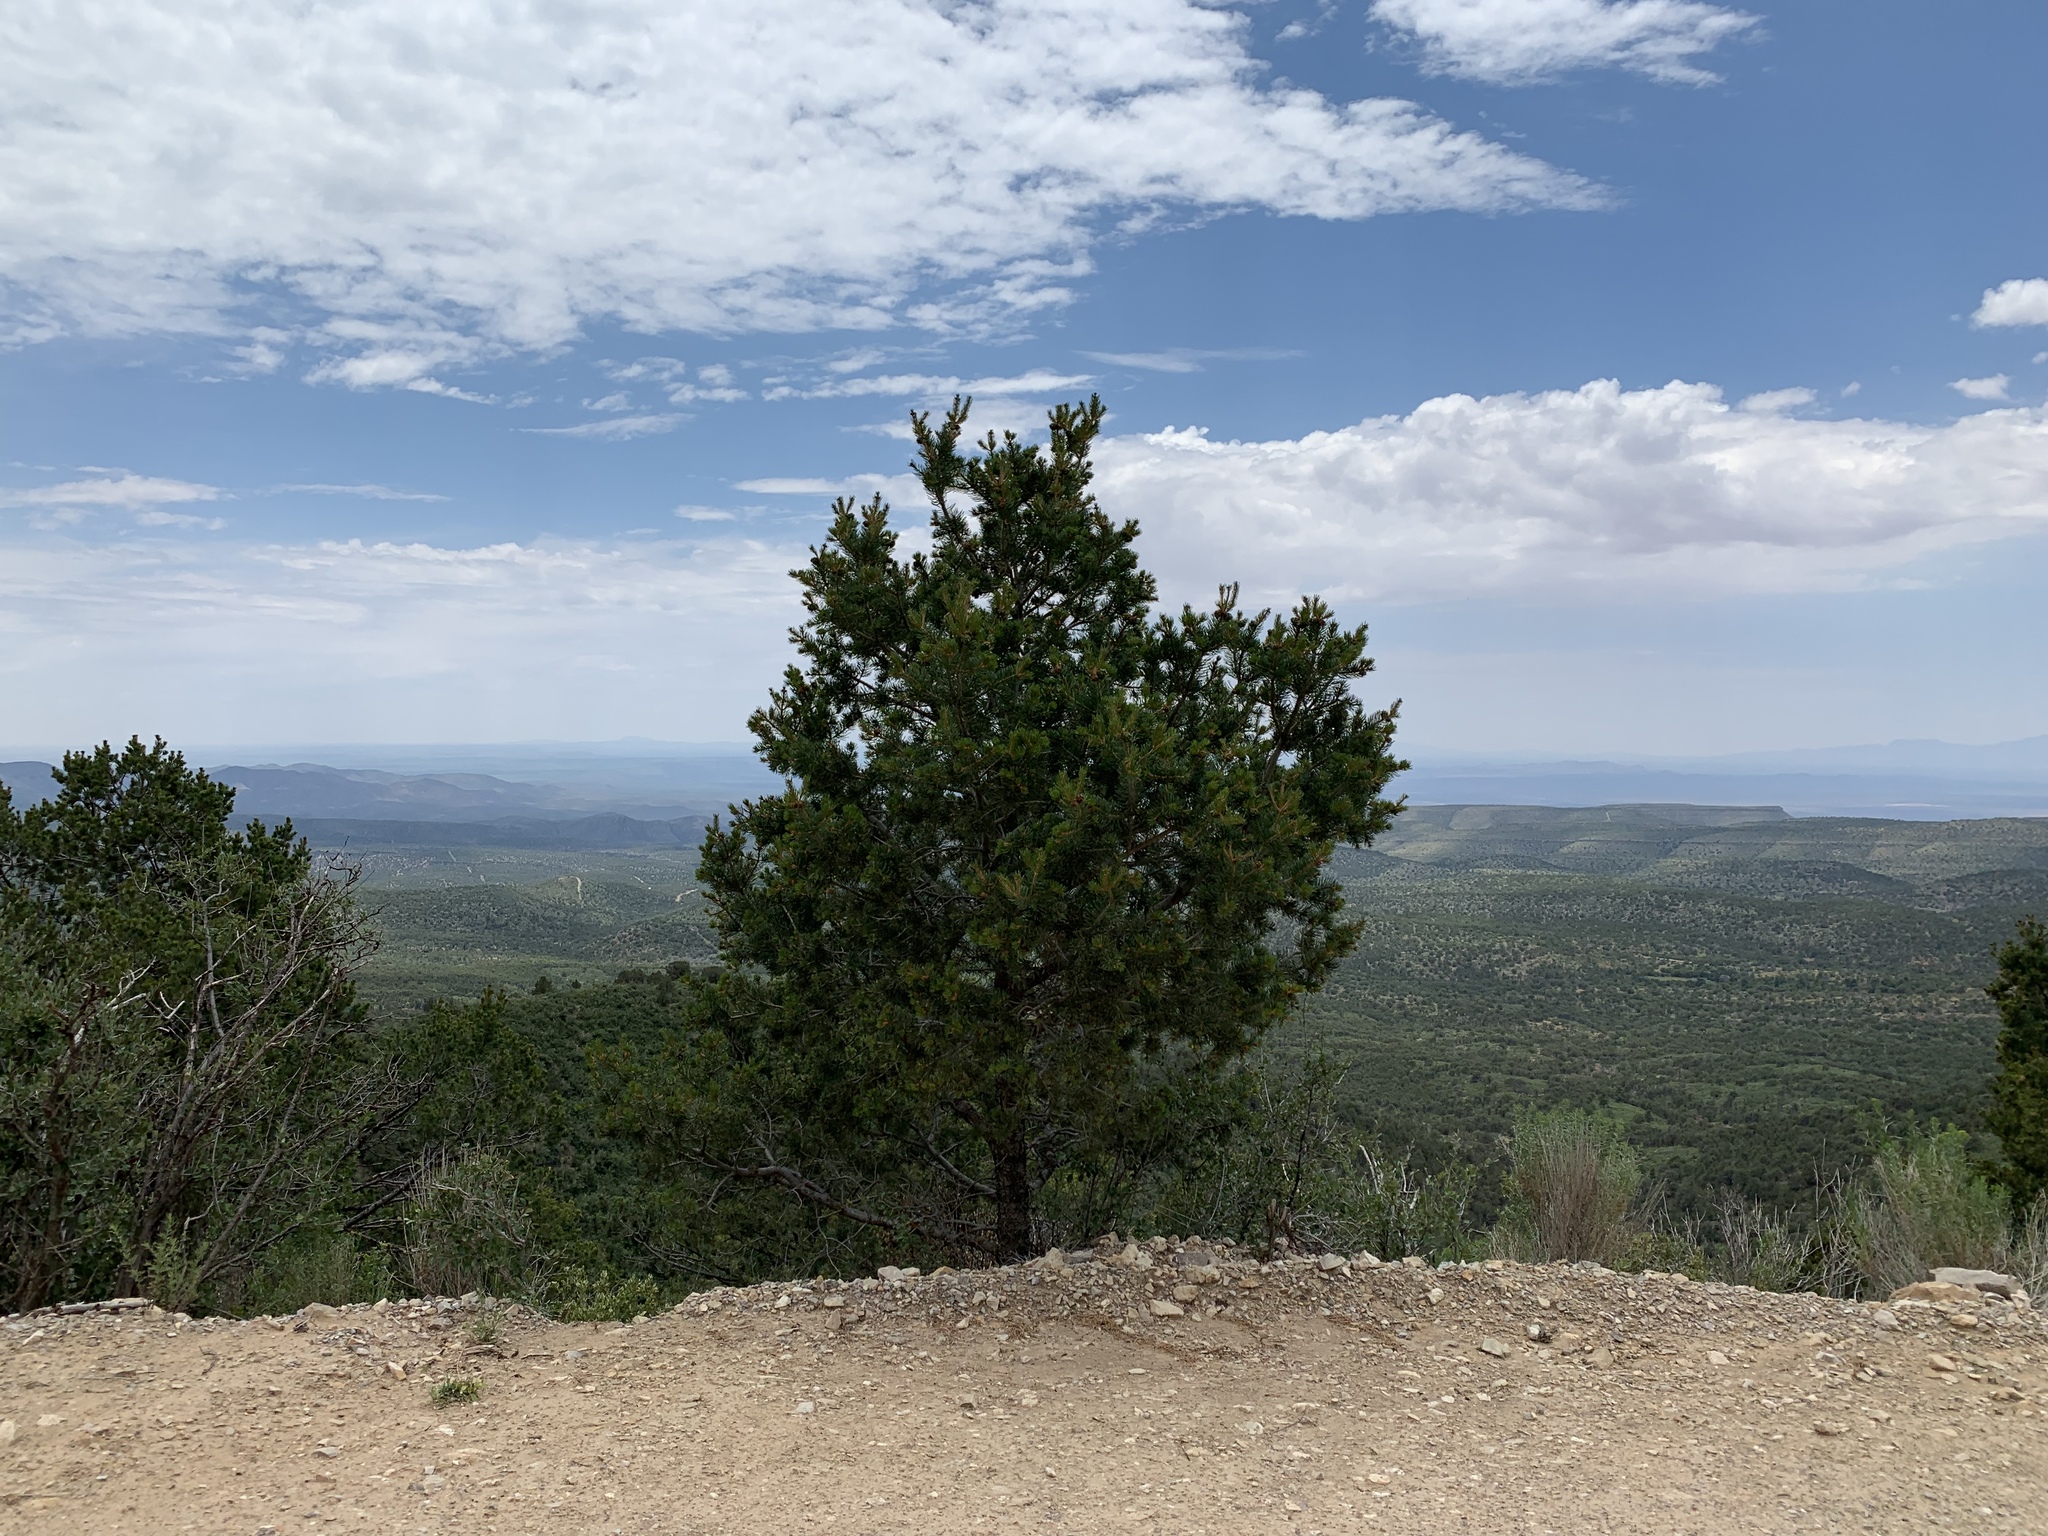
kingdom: Plantae
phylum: Tracheophyta
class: Pinopsida
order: Pinales
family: Pinaceae
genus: Pinus
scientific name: Pinus edulis
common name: Colorado pinyon
